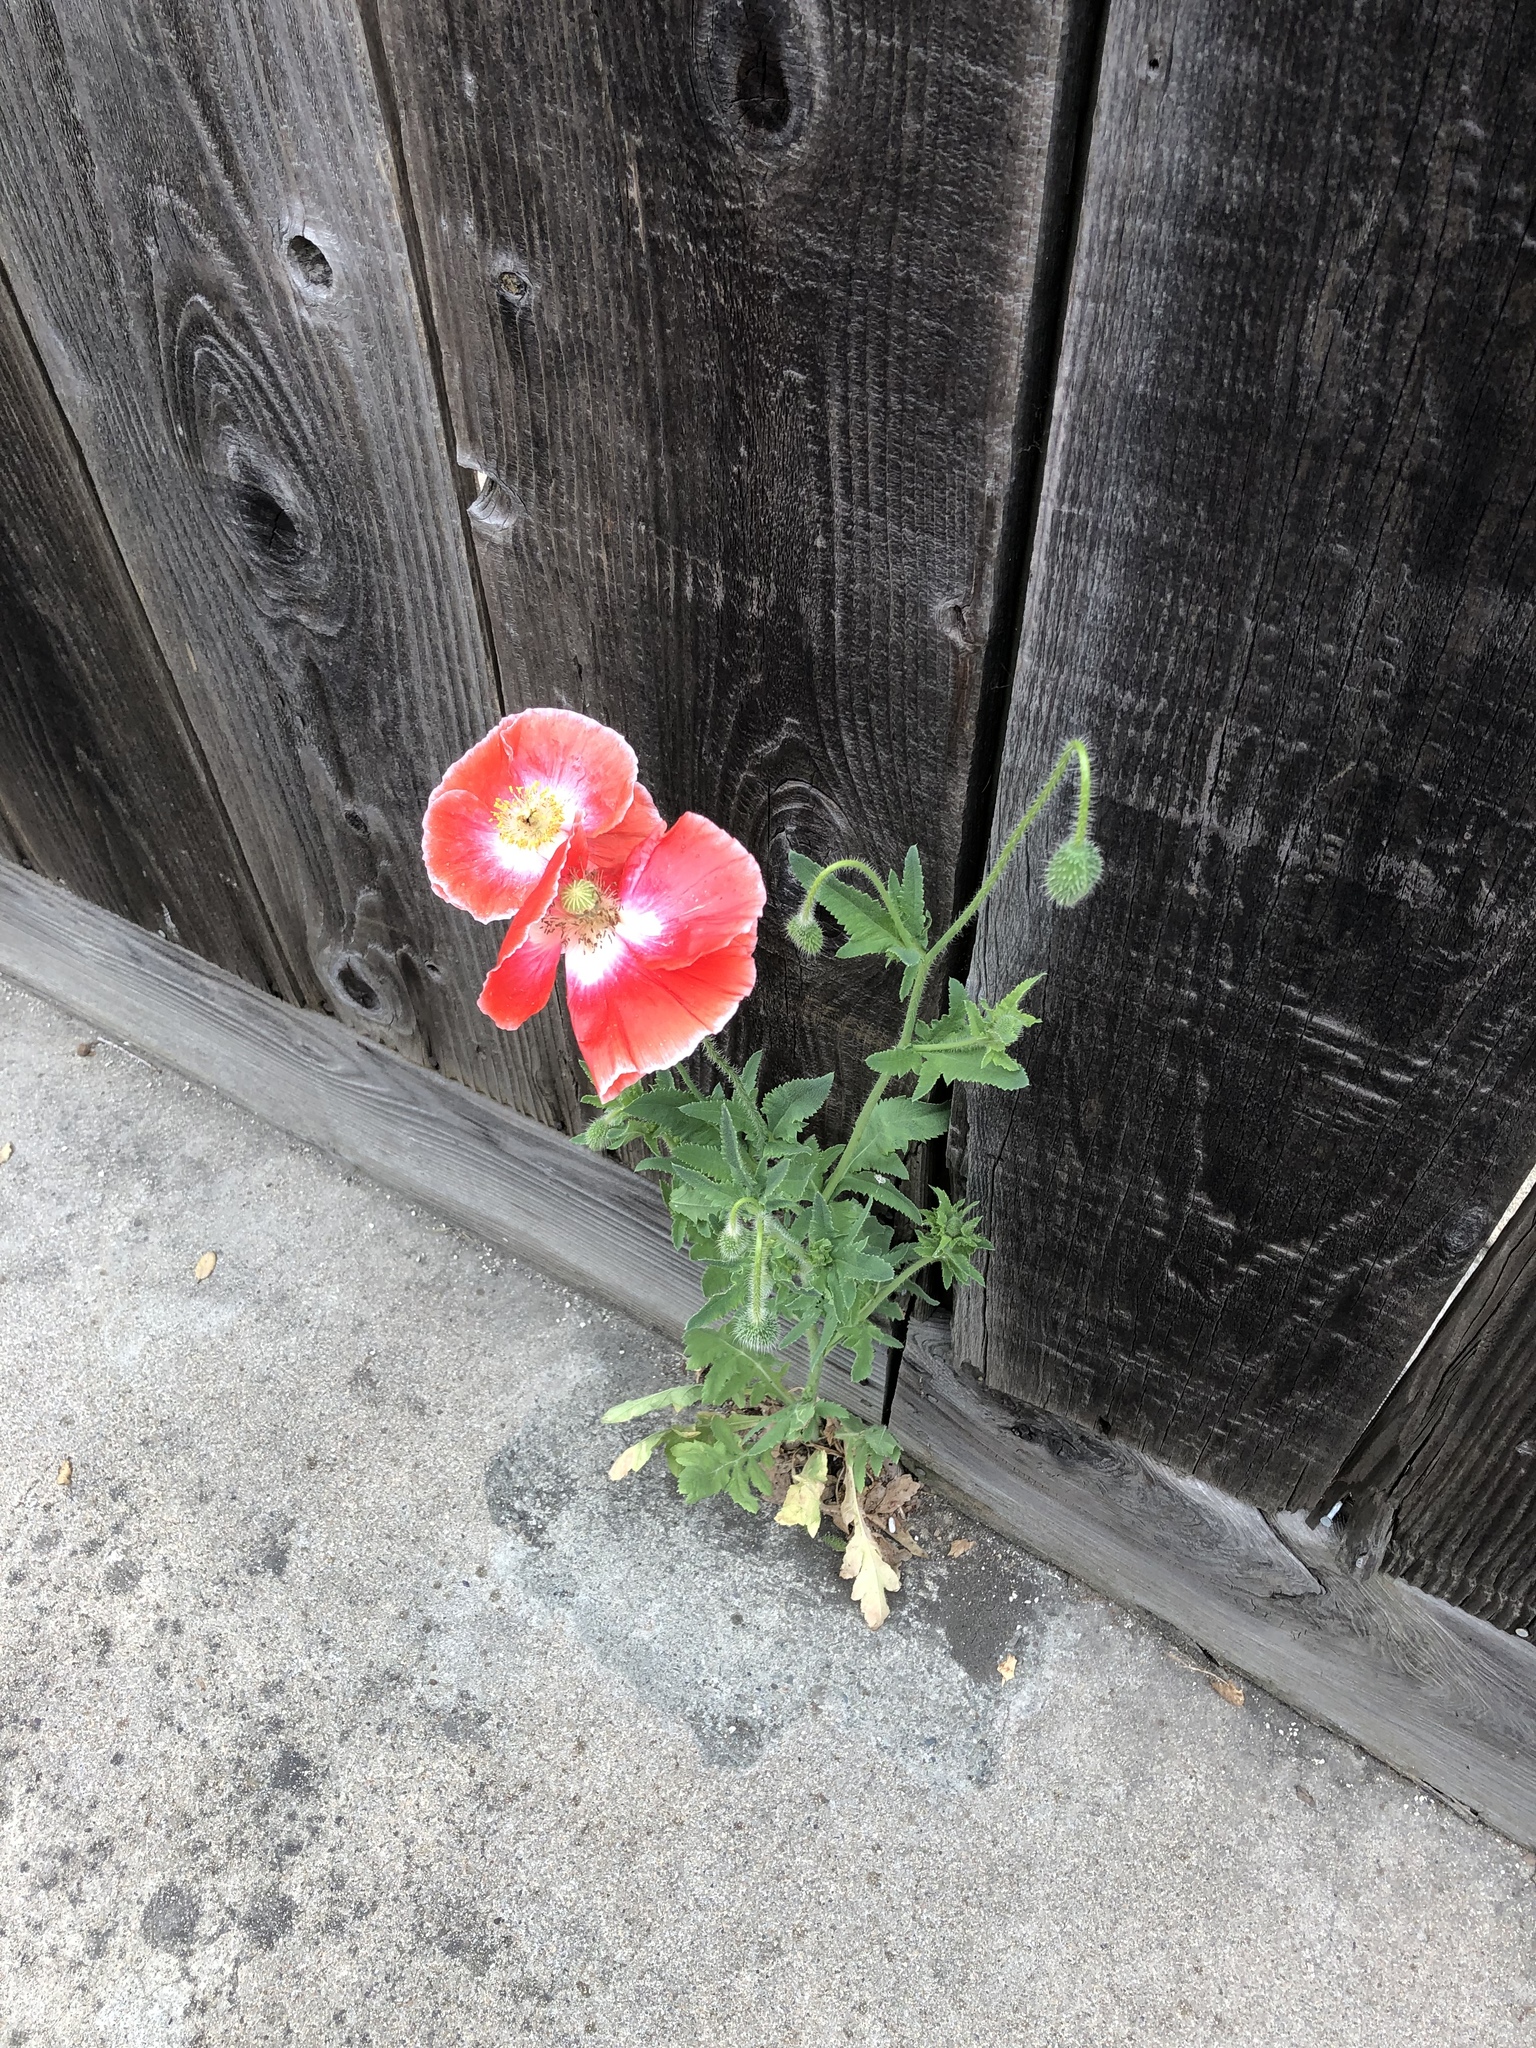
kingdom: Plantae
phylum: Tracheophyta
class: Magnoliopsida
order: Ranunculales
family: Papaveraceae
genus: Papaver
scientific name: Papaver rhoeas
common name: Corn poppy
